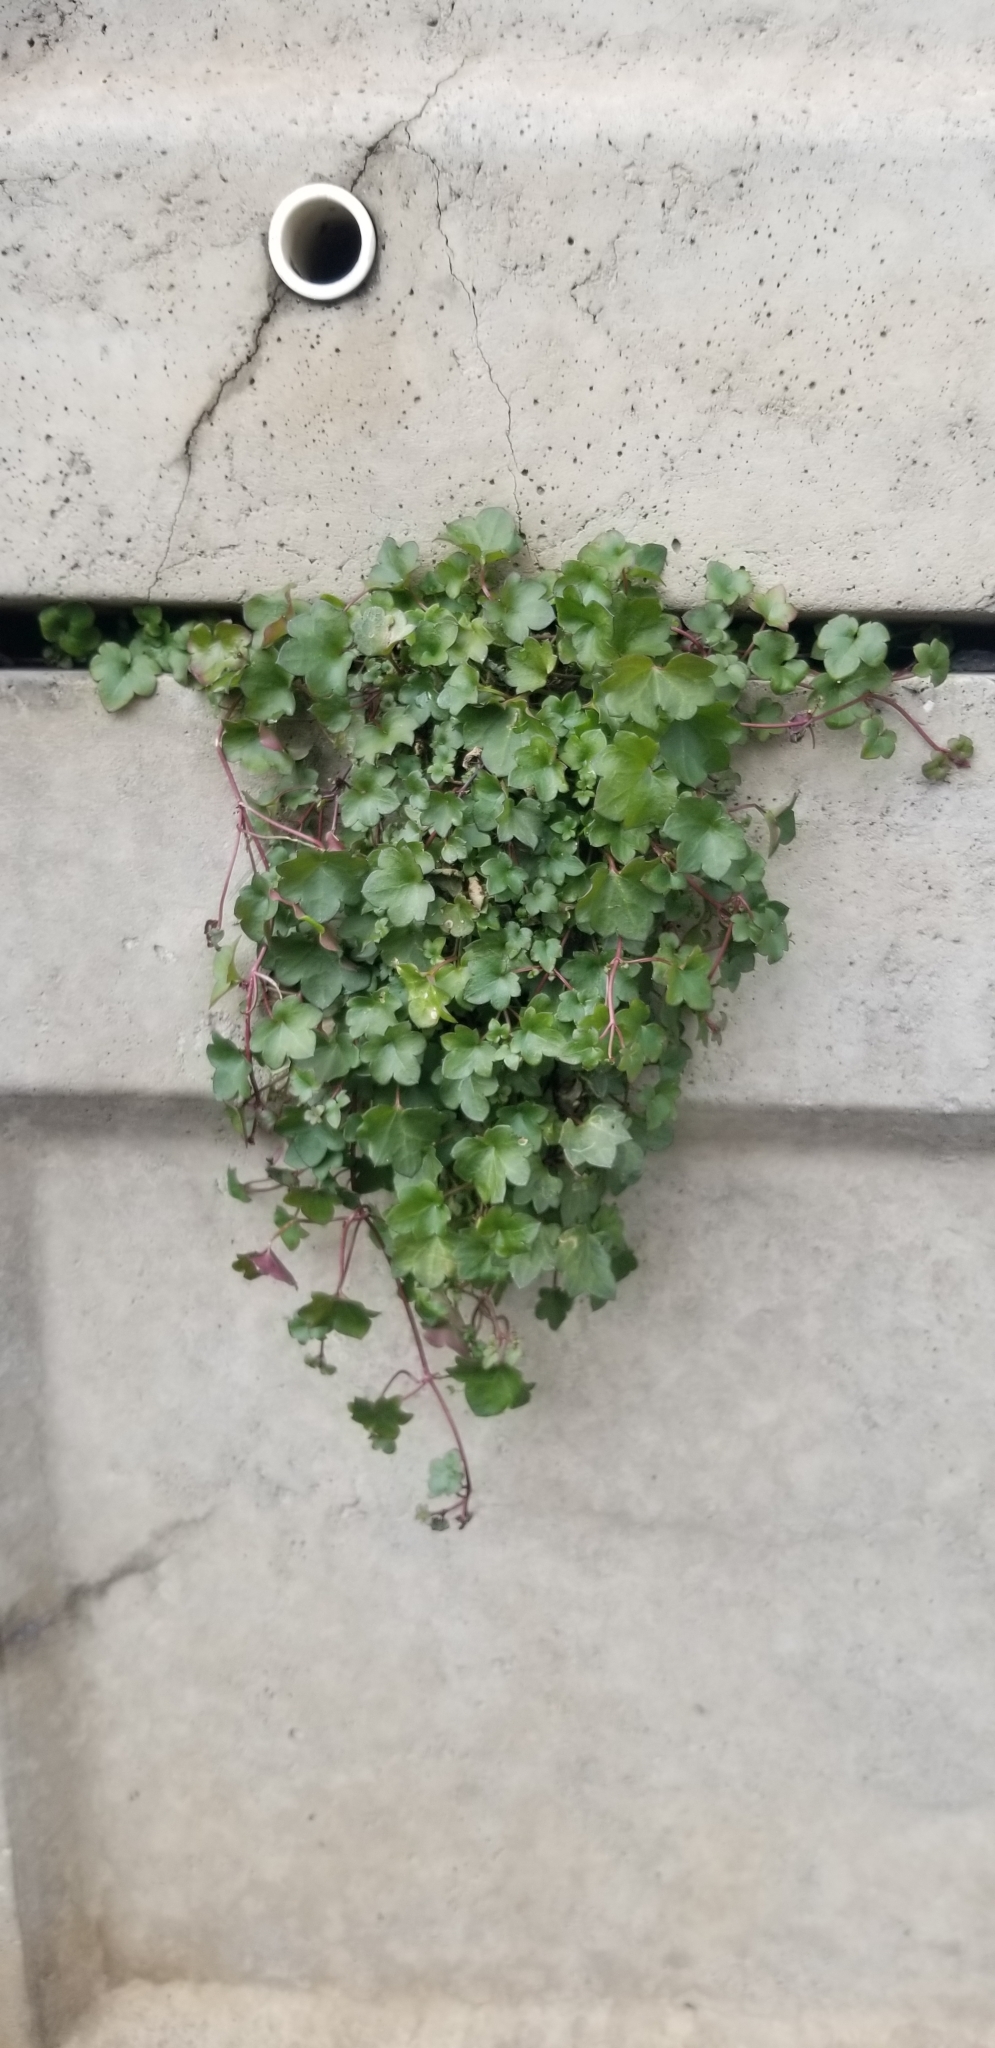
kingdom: Plantae
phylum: Tracheophyta
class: Magnoliopsida
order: Lamiales
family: Plantaginaceae
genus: Cymbalaria
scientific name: Cymbalaria muralis
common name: Ivy-leaved toadflax
